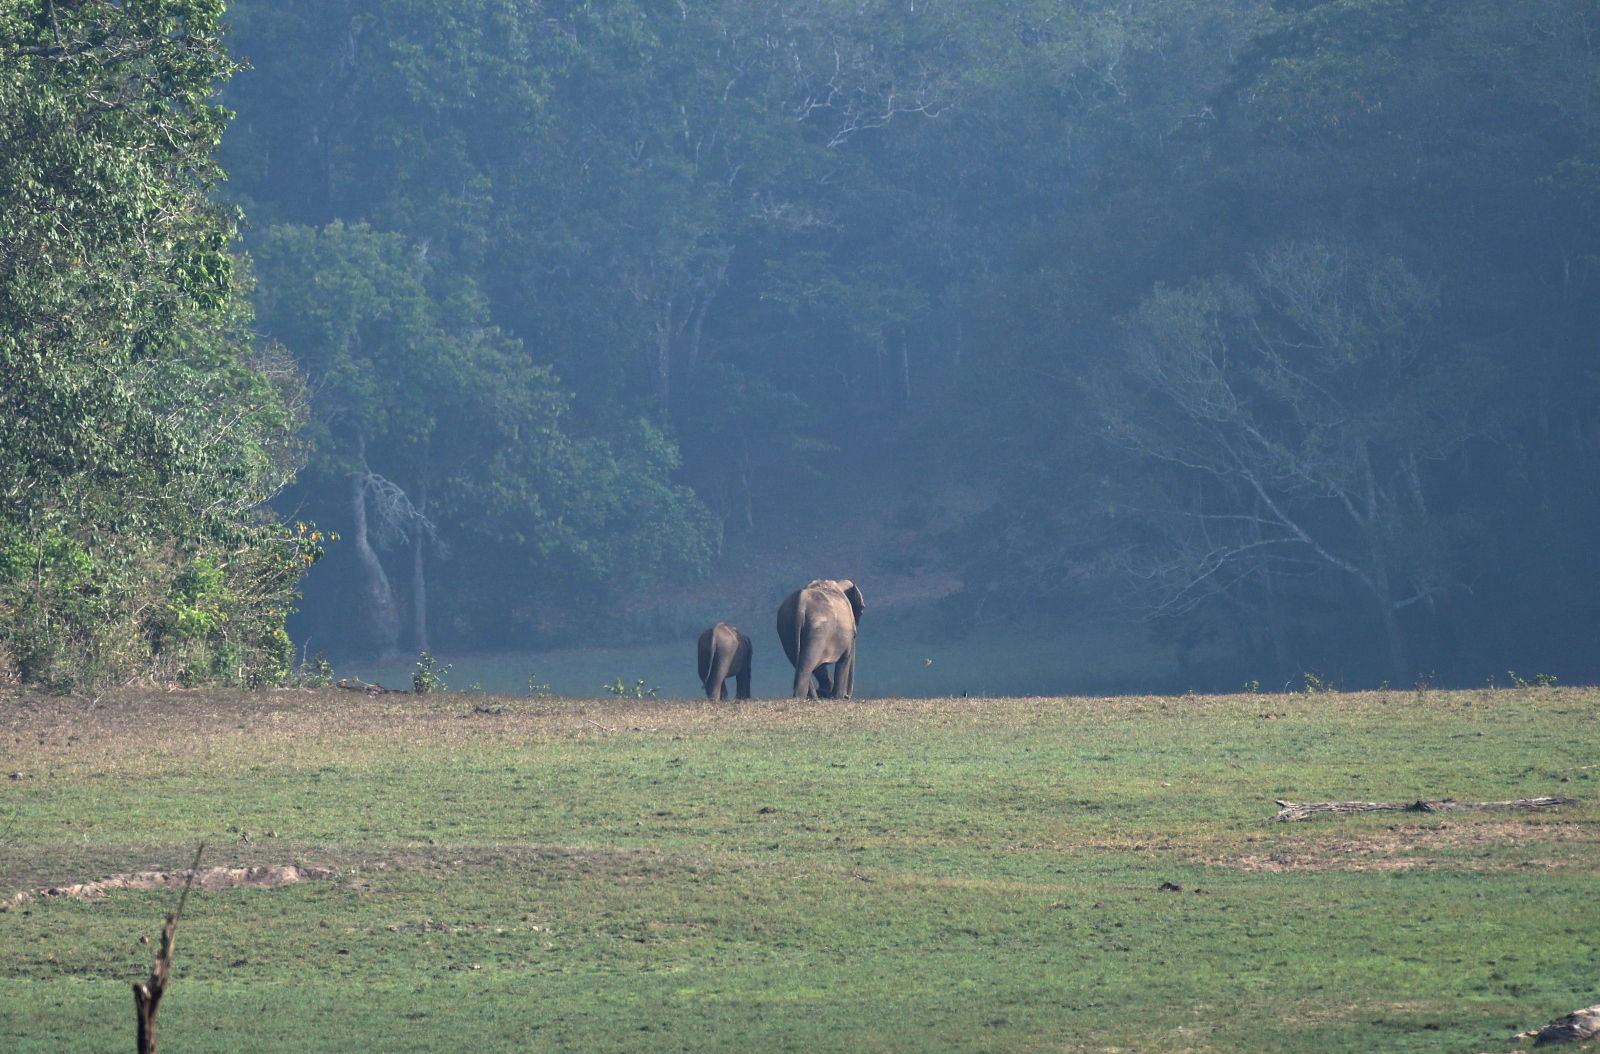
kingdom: Animalia
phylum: Chordata
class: Mammalia
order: Proboscidea
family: Elephantidae
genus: Elephas
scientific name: Elephas maximus
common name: Asian elephant
